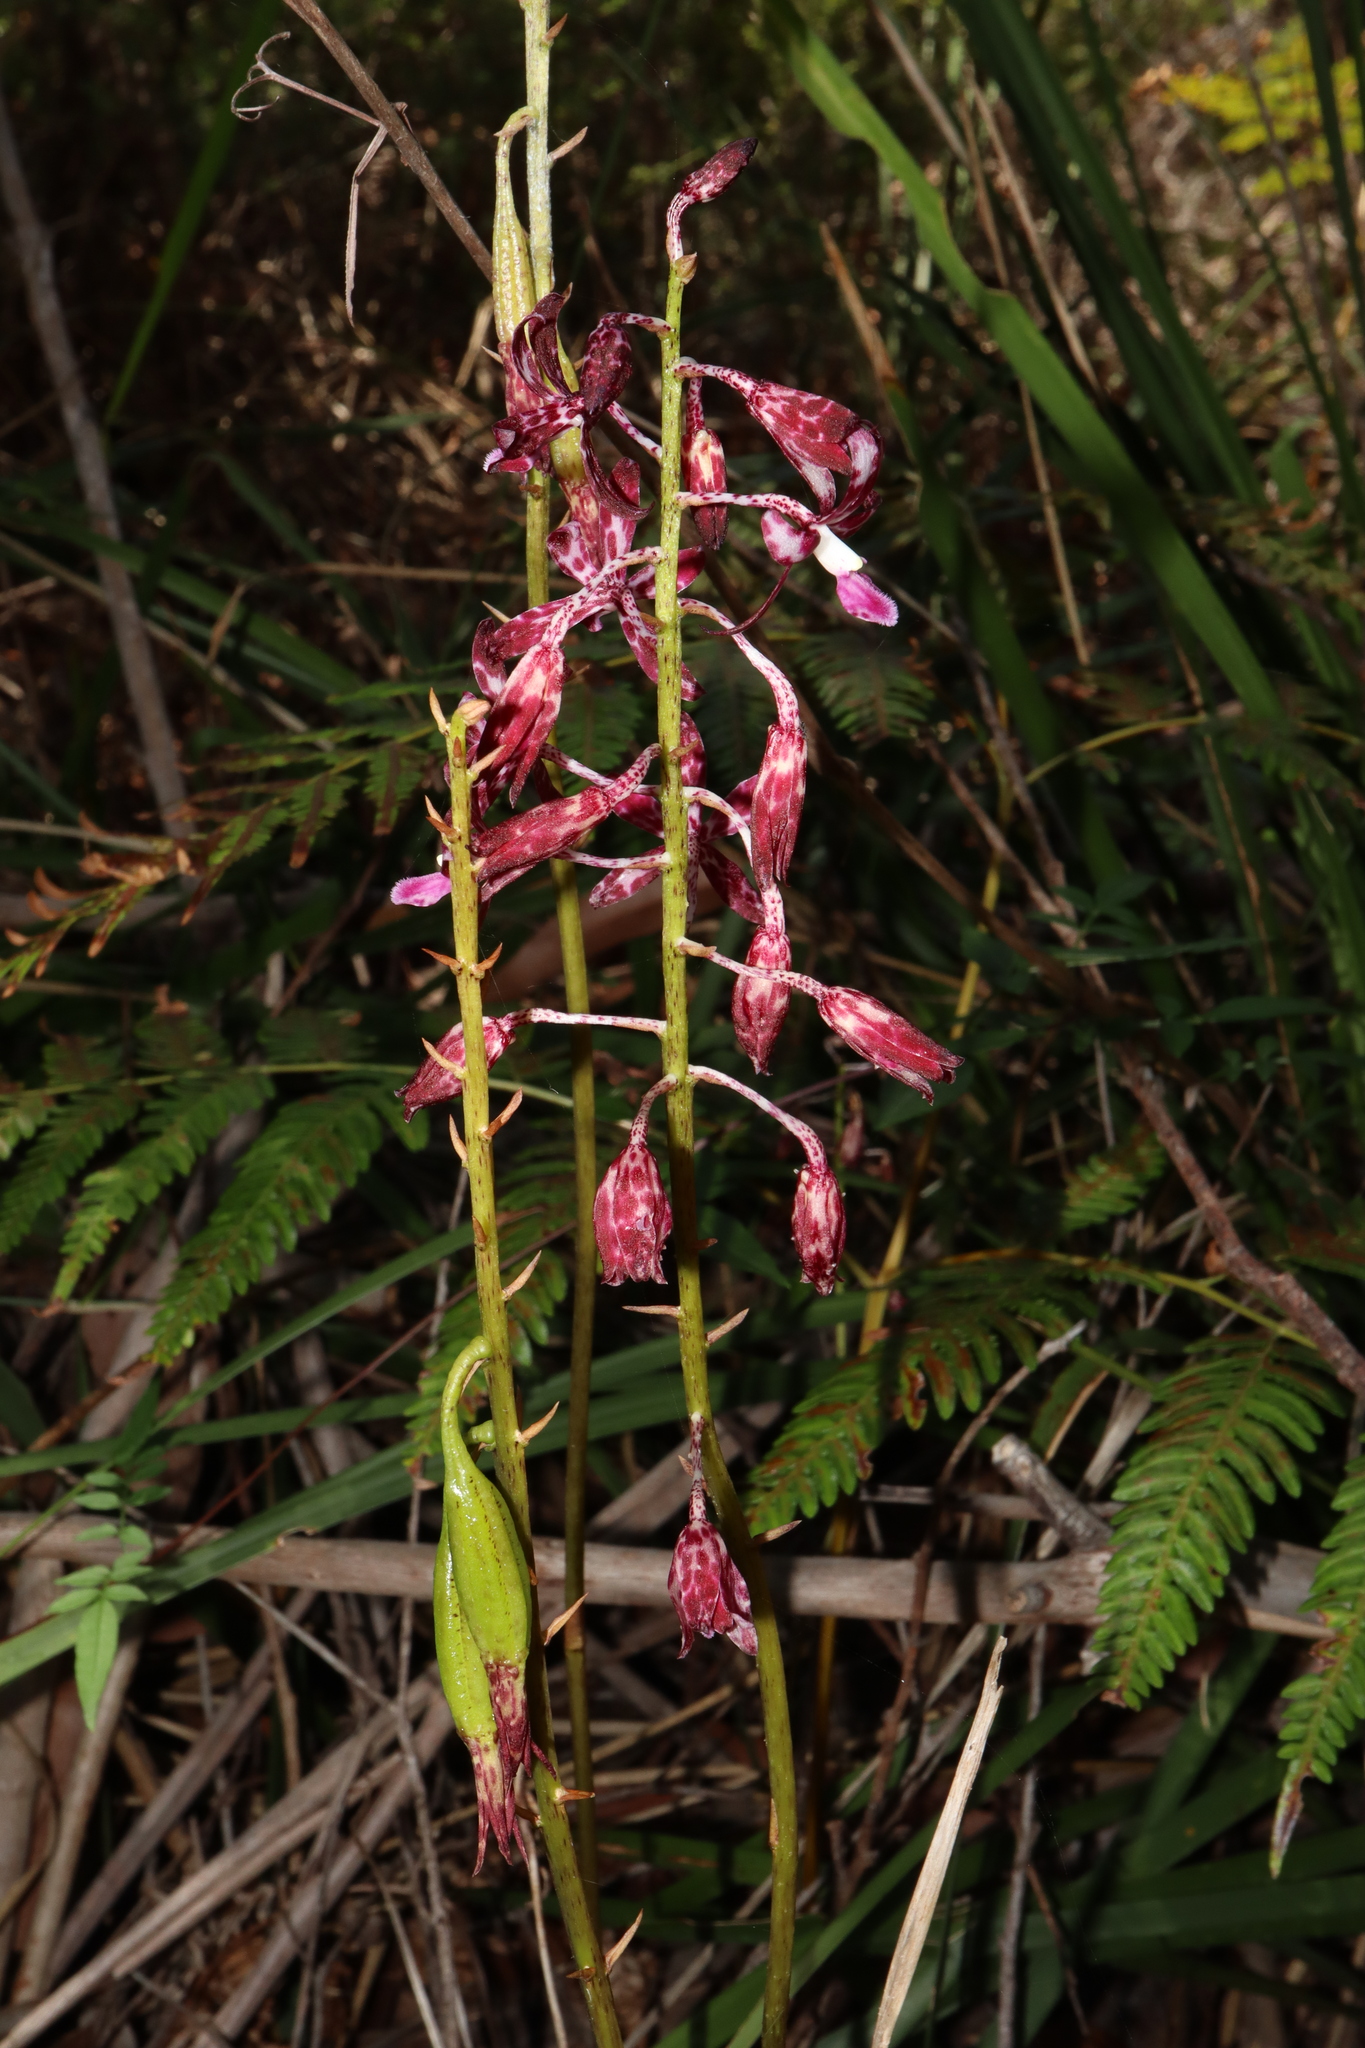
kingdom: Plantae
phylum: Tracheophyta
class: Liliopsida
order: Asparagales
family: Orchidaceae
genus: Dipodium
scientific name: Dipodium variegatum
